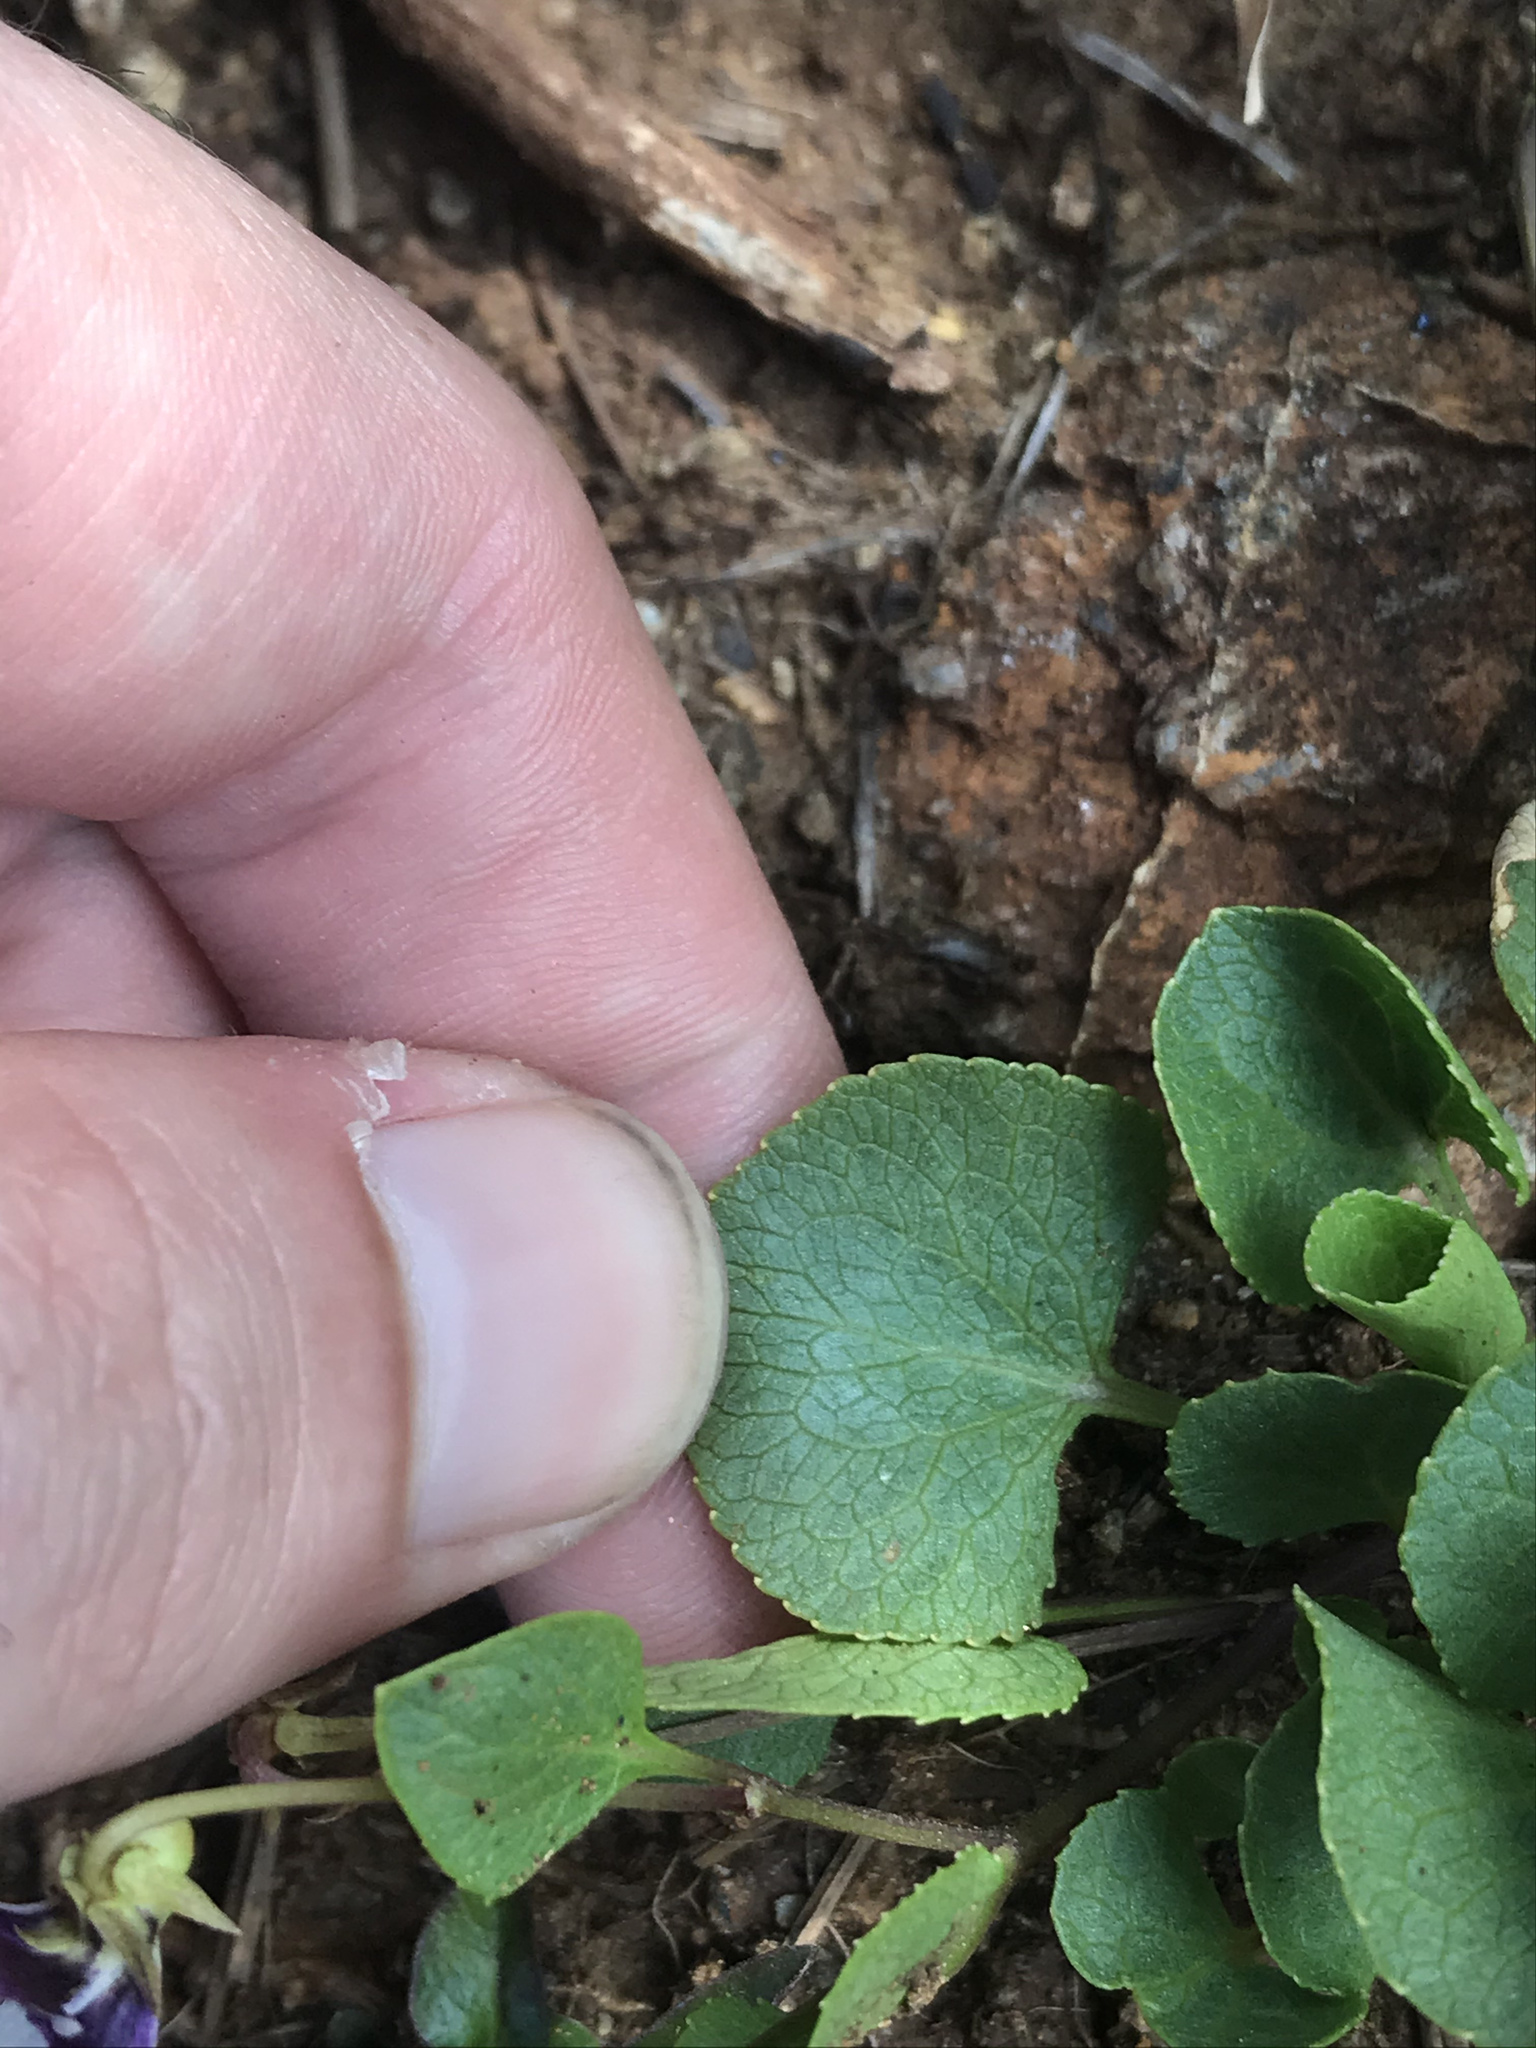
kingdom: Plantae
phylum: Tracheophyta
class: Magnoliopsida
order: Malpighiales
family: Violaceae
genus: Viola
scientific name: Viola cuneata
